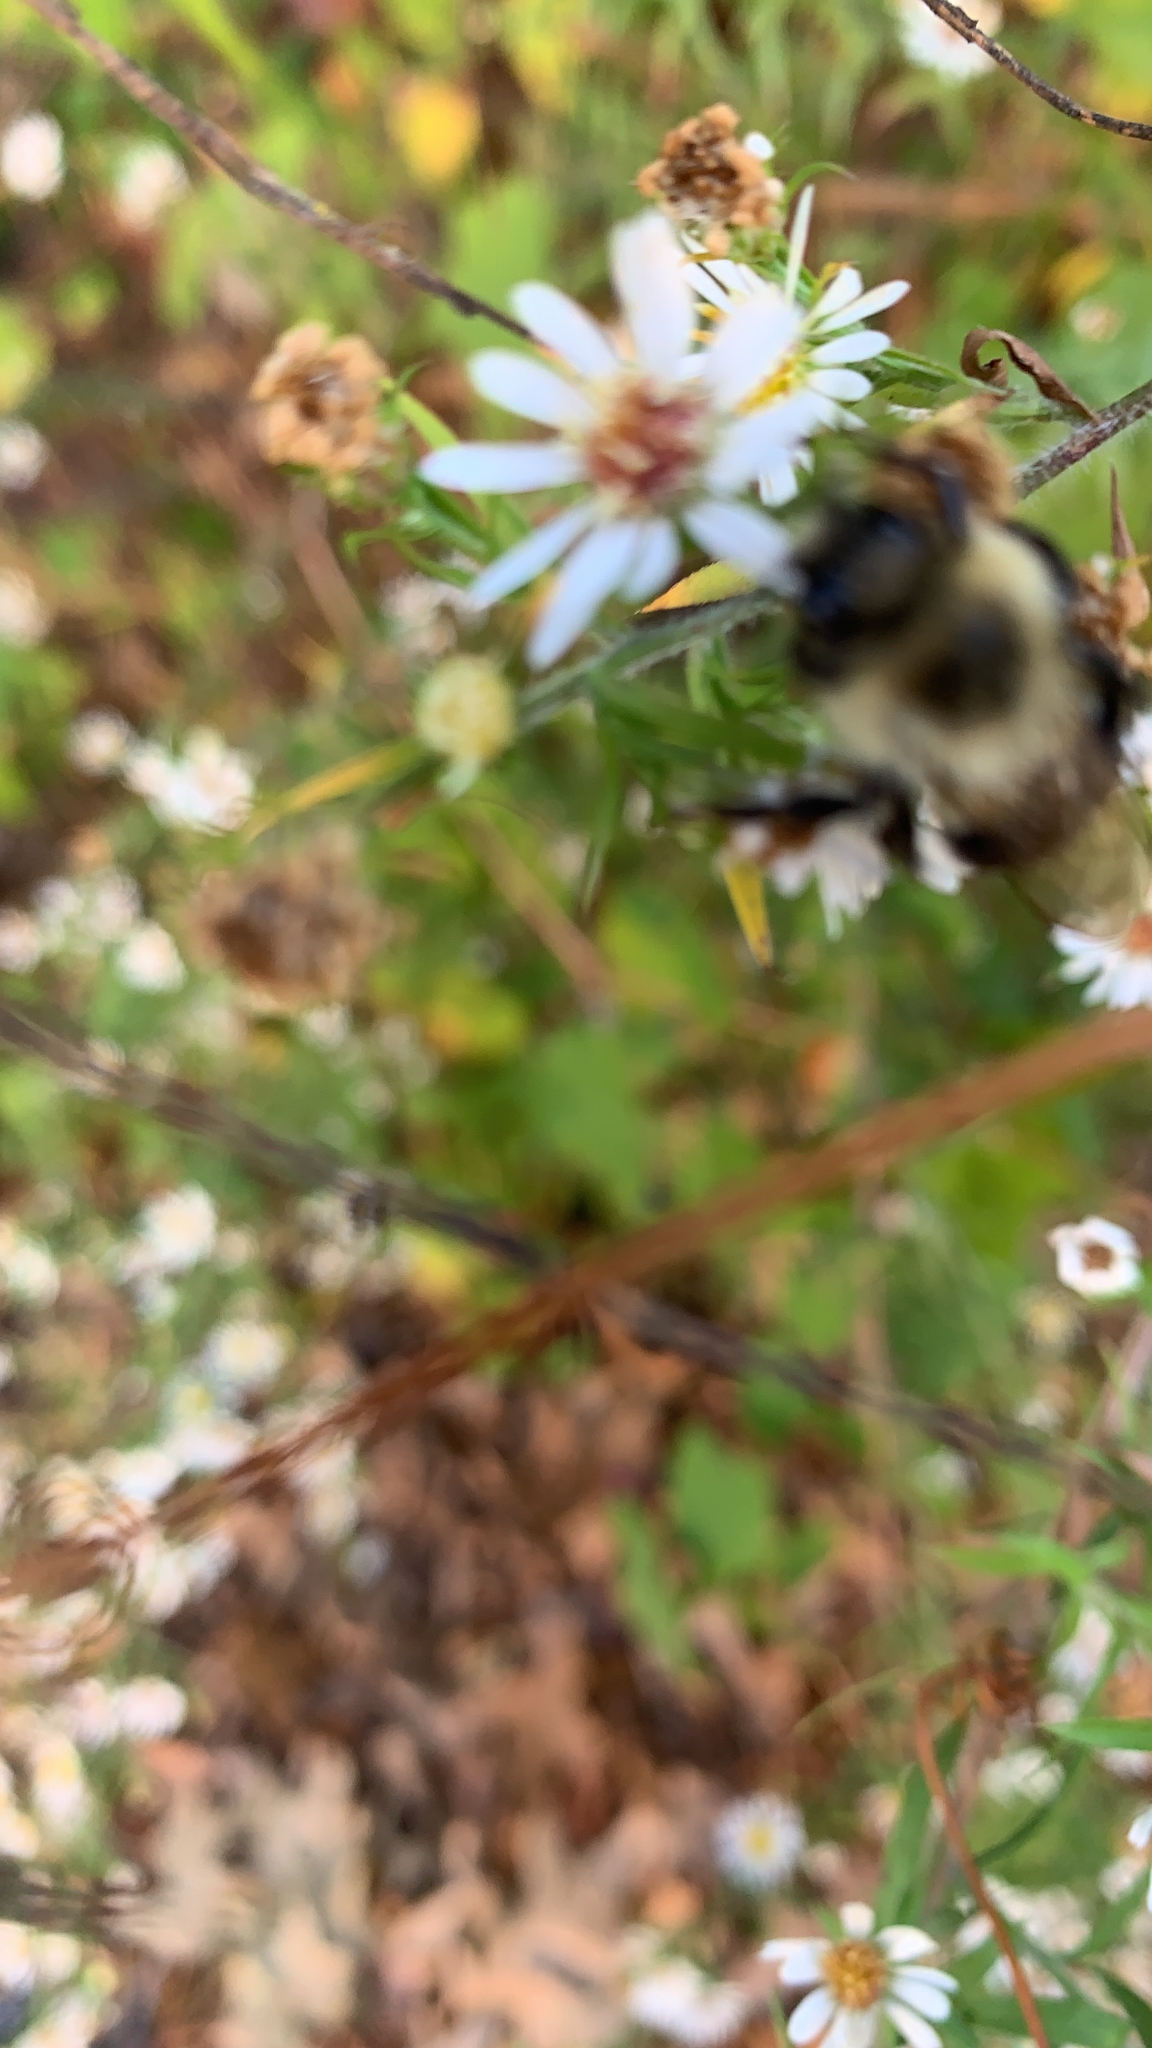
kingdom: Animalia
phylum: Arthropoda
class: Insecta
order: Hymenoptera
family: Apidae
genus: Bombus
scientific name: Bombus impatiens
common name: Common eastern bumble bee
